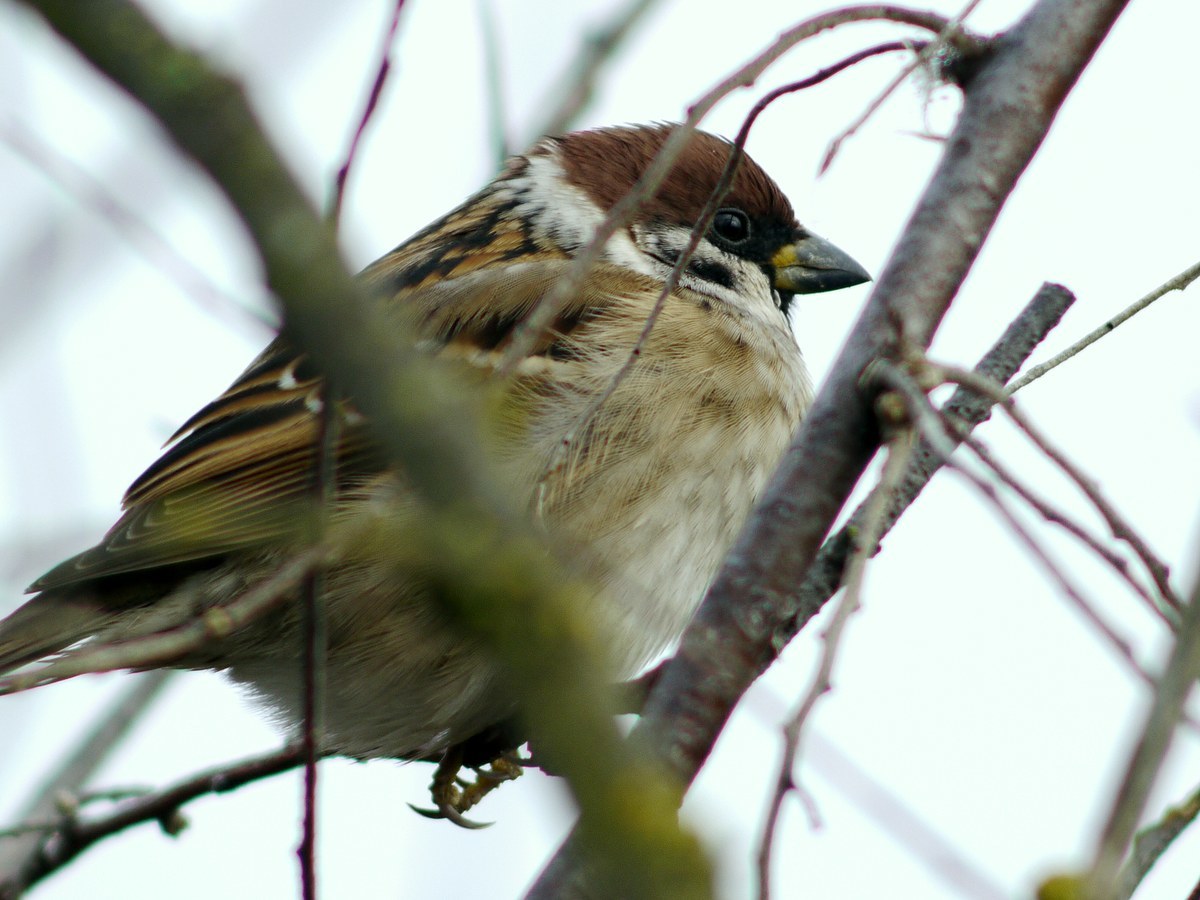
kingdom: Animalia
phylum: Chordata
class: Aves
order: Passeriformes
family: Passeridae
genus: Passer
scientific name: Passer montanus
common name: Eurasian tree sparrow
